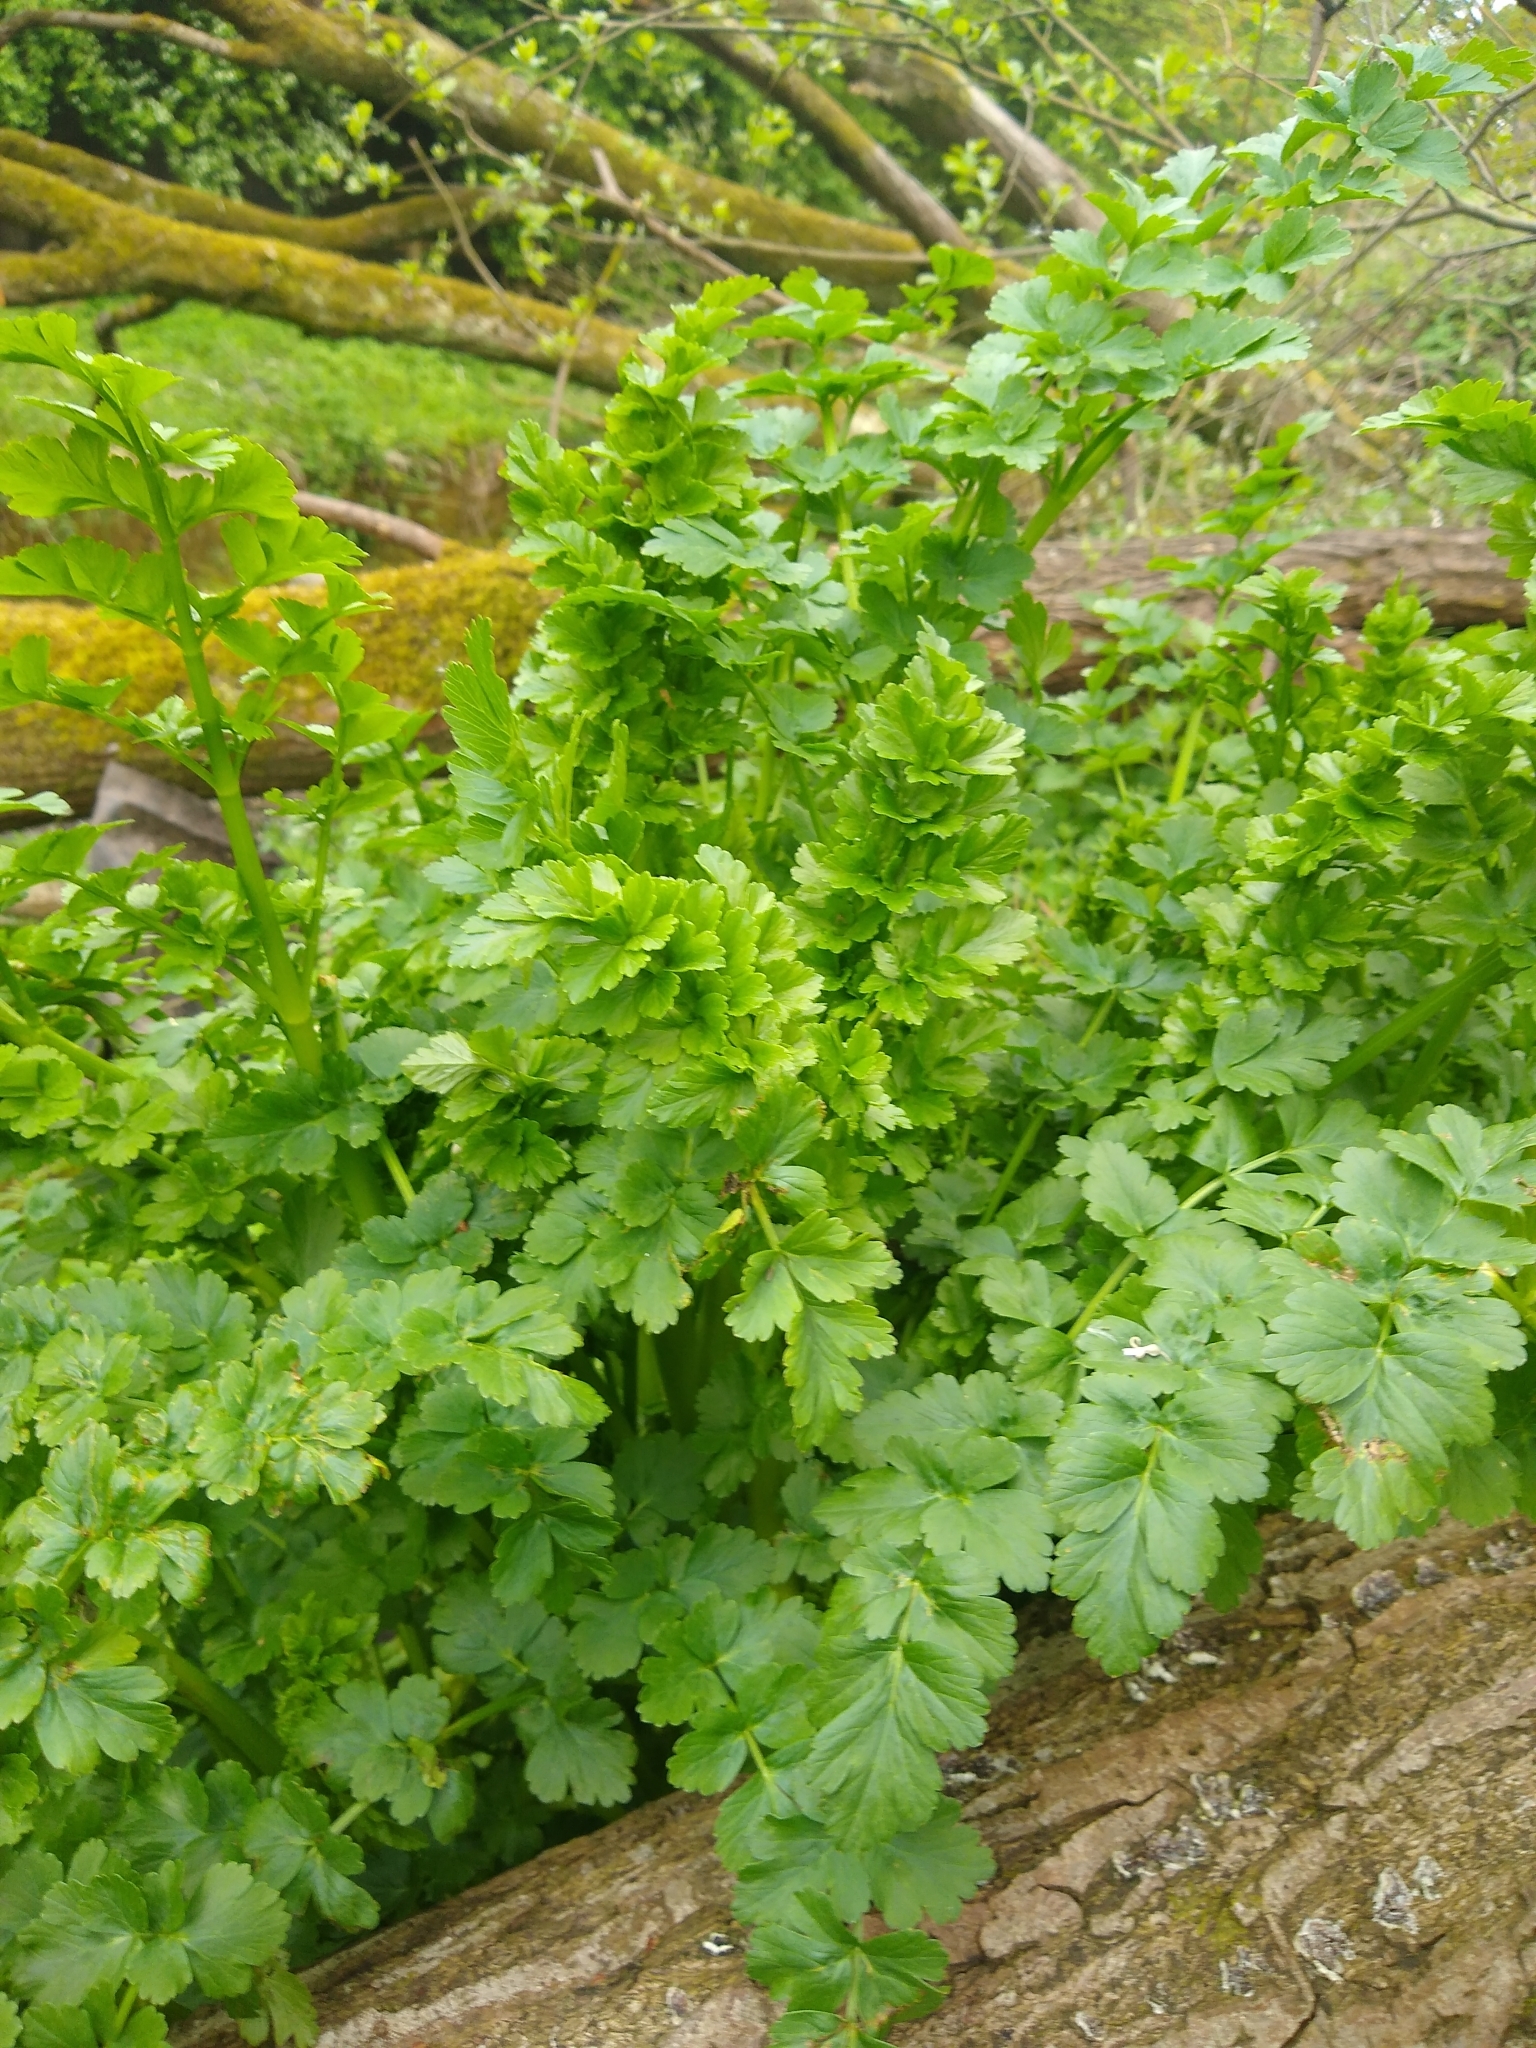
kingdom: Plantae
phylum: Tracheophyta
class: Magnoliopsida
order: Apiales
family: Apiaceae
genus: Oenanthe
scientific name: Oenanthe crocata
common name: Hemlock water-dropwort
